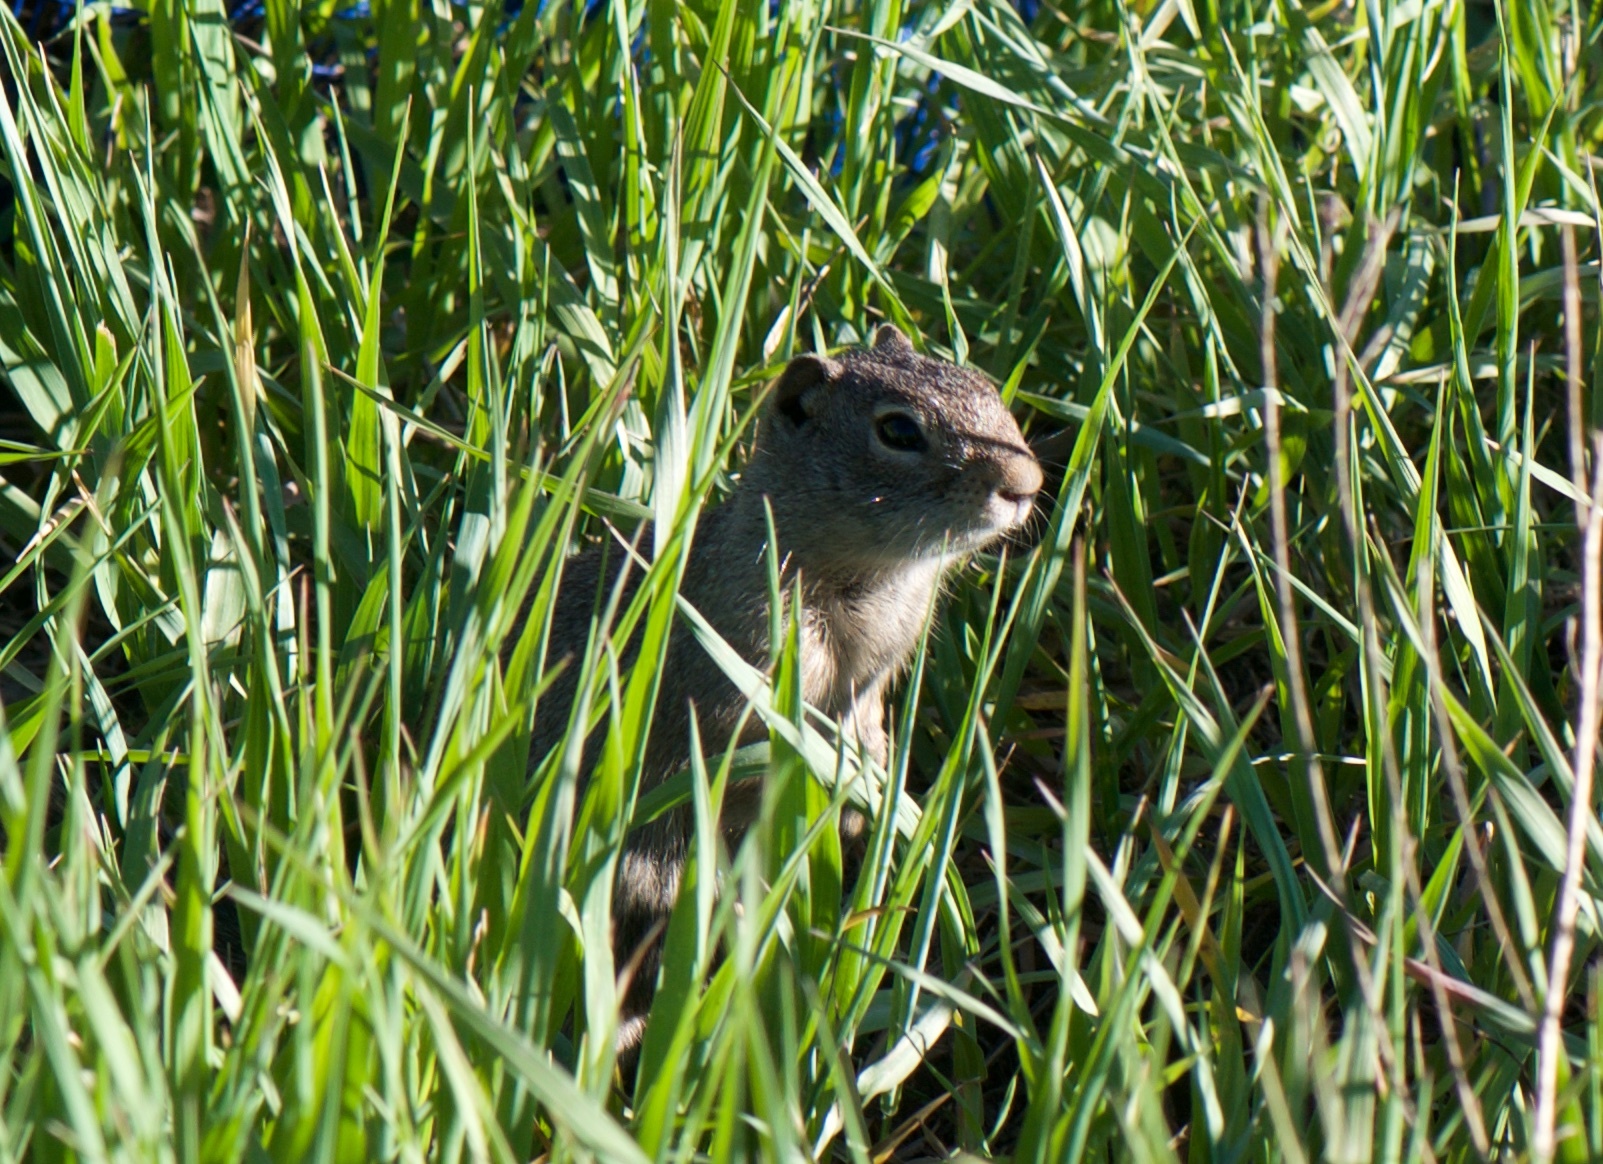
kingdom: Animalia
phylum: Chordata
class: Mammalia
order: Rodentia
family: Sciuridae
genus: Urocitellus
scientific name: Urocitellus armatus
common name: Uinta ground squirrel
